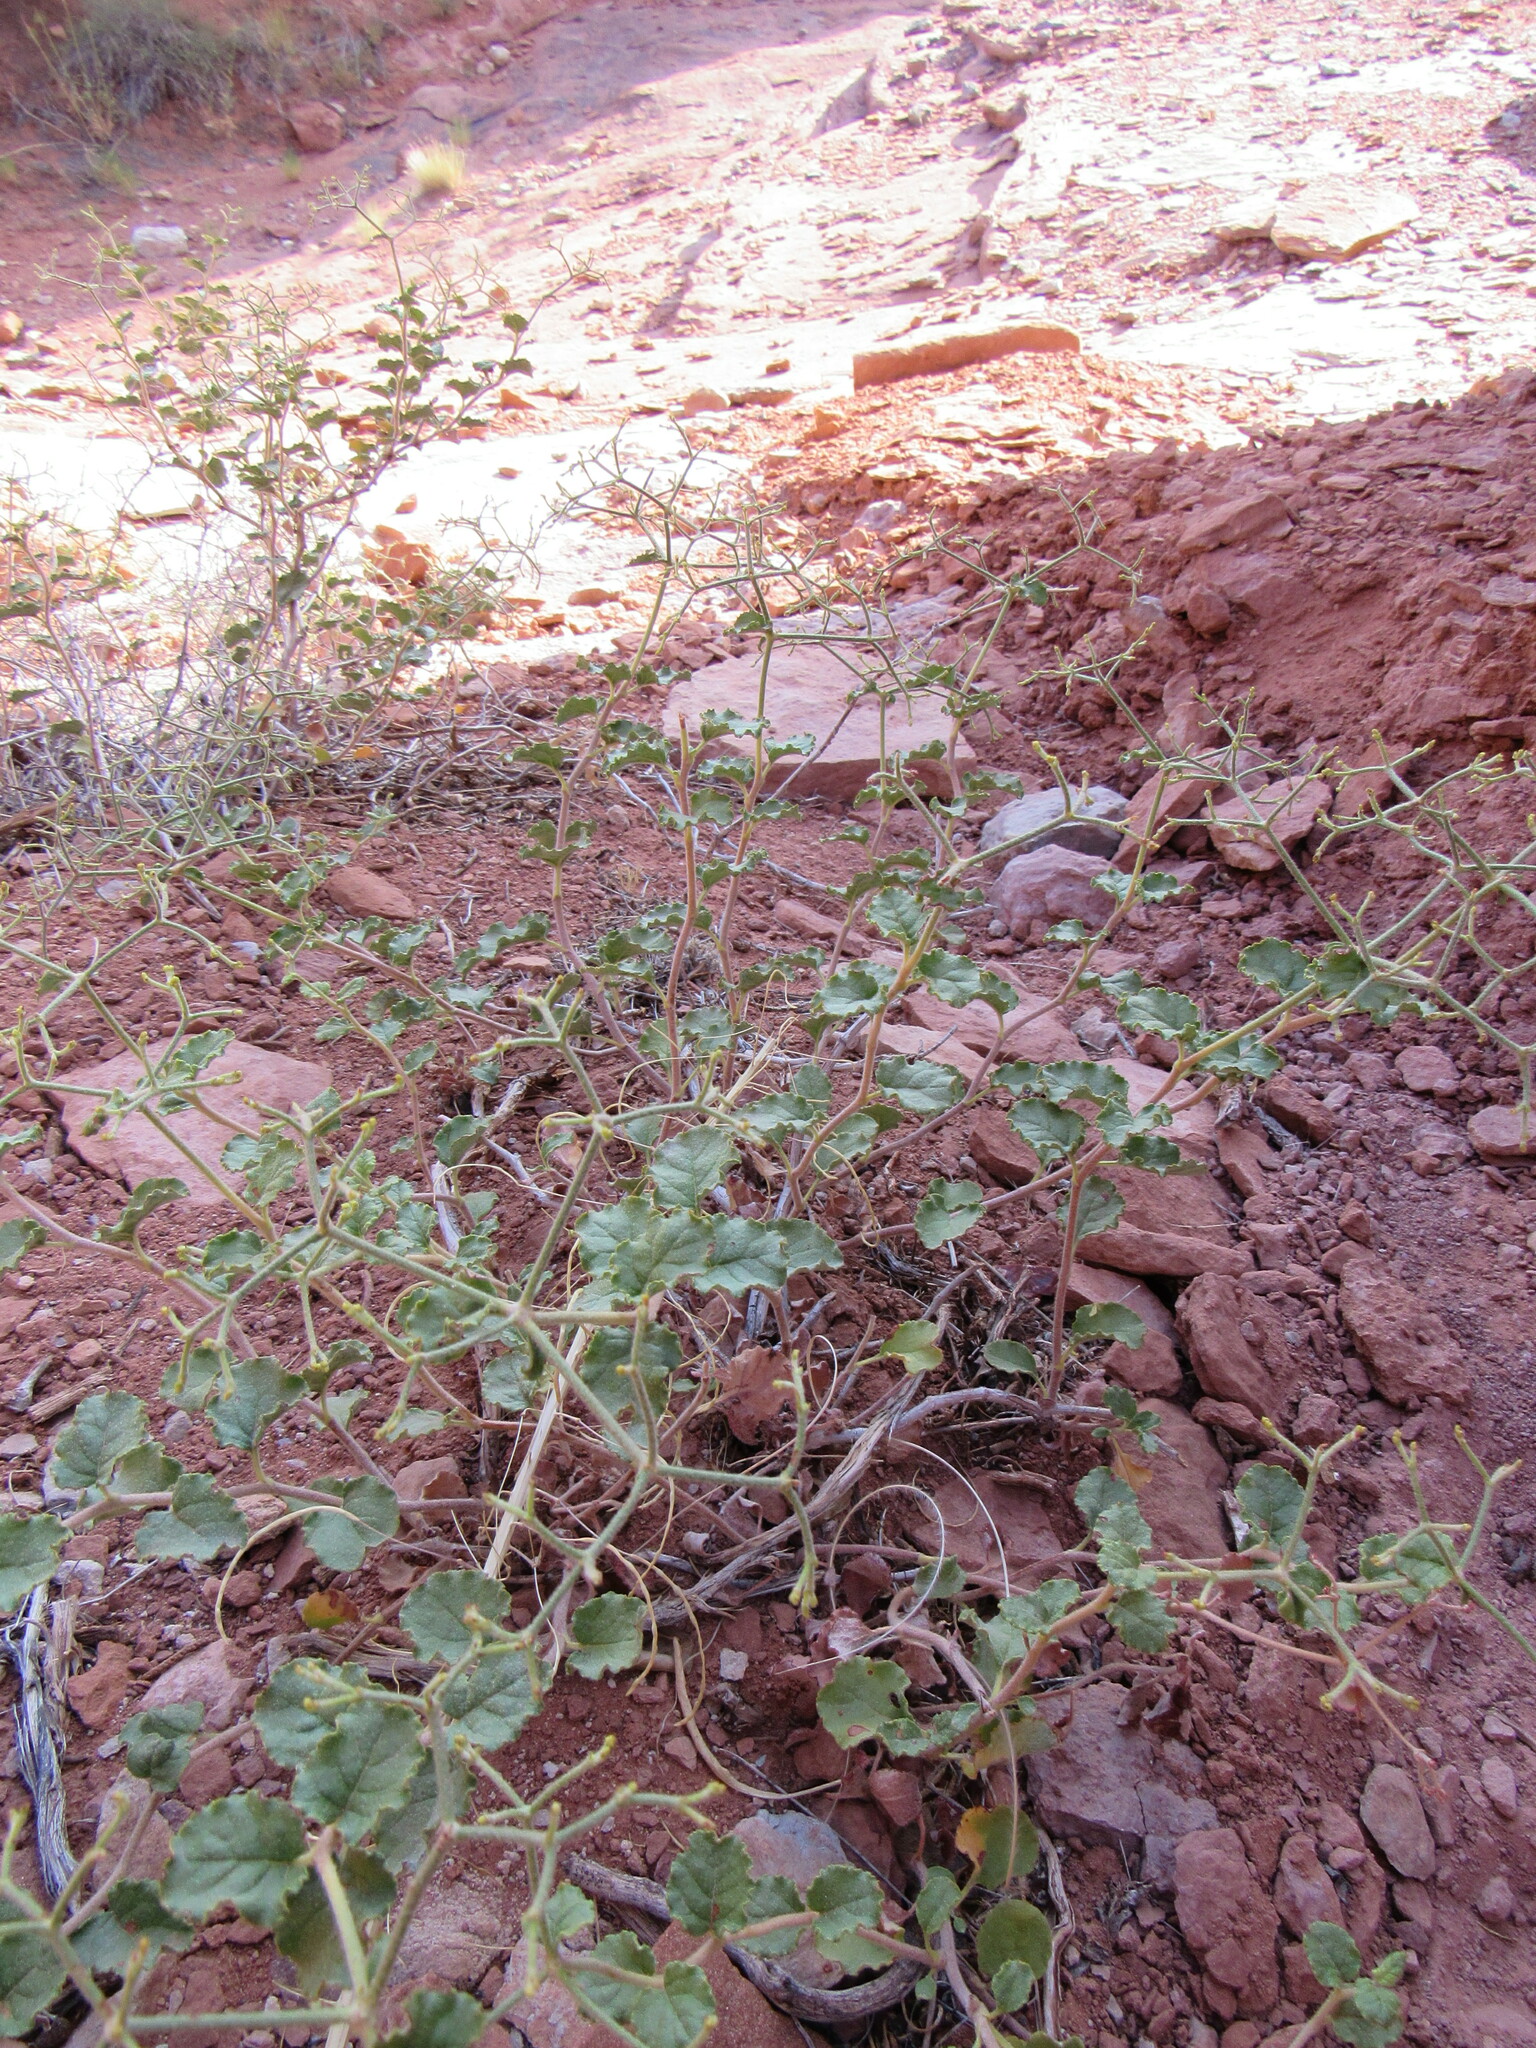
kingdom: Plantae
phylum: Tracheophyta
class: Magnoliopsida
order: Caryophyllales
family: Polygonaceae
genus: Eriogonum
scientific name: Eriogonum corymbosum
